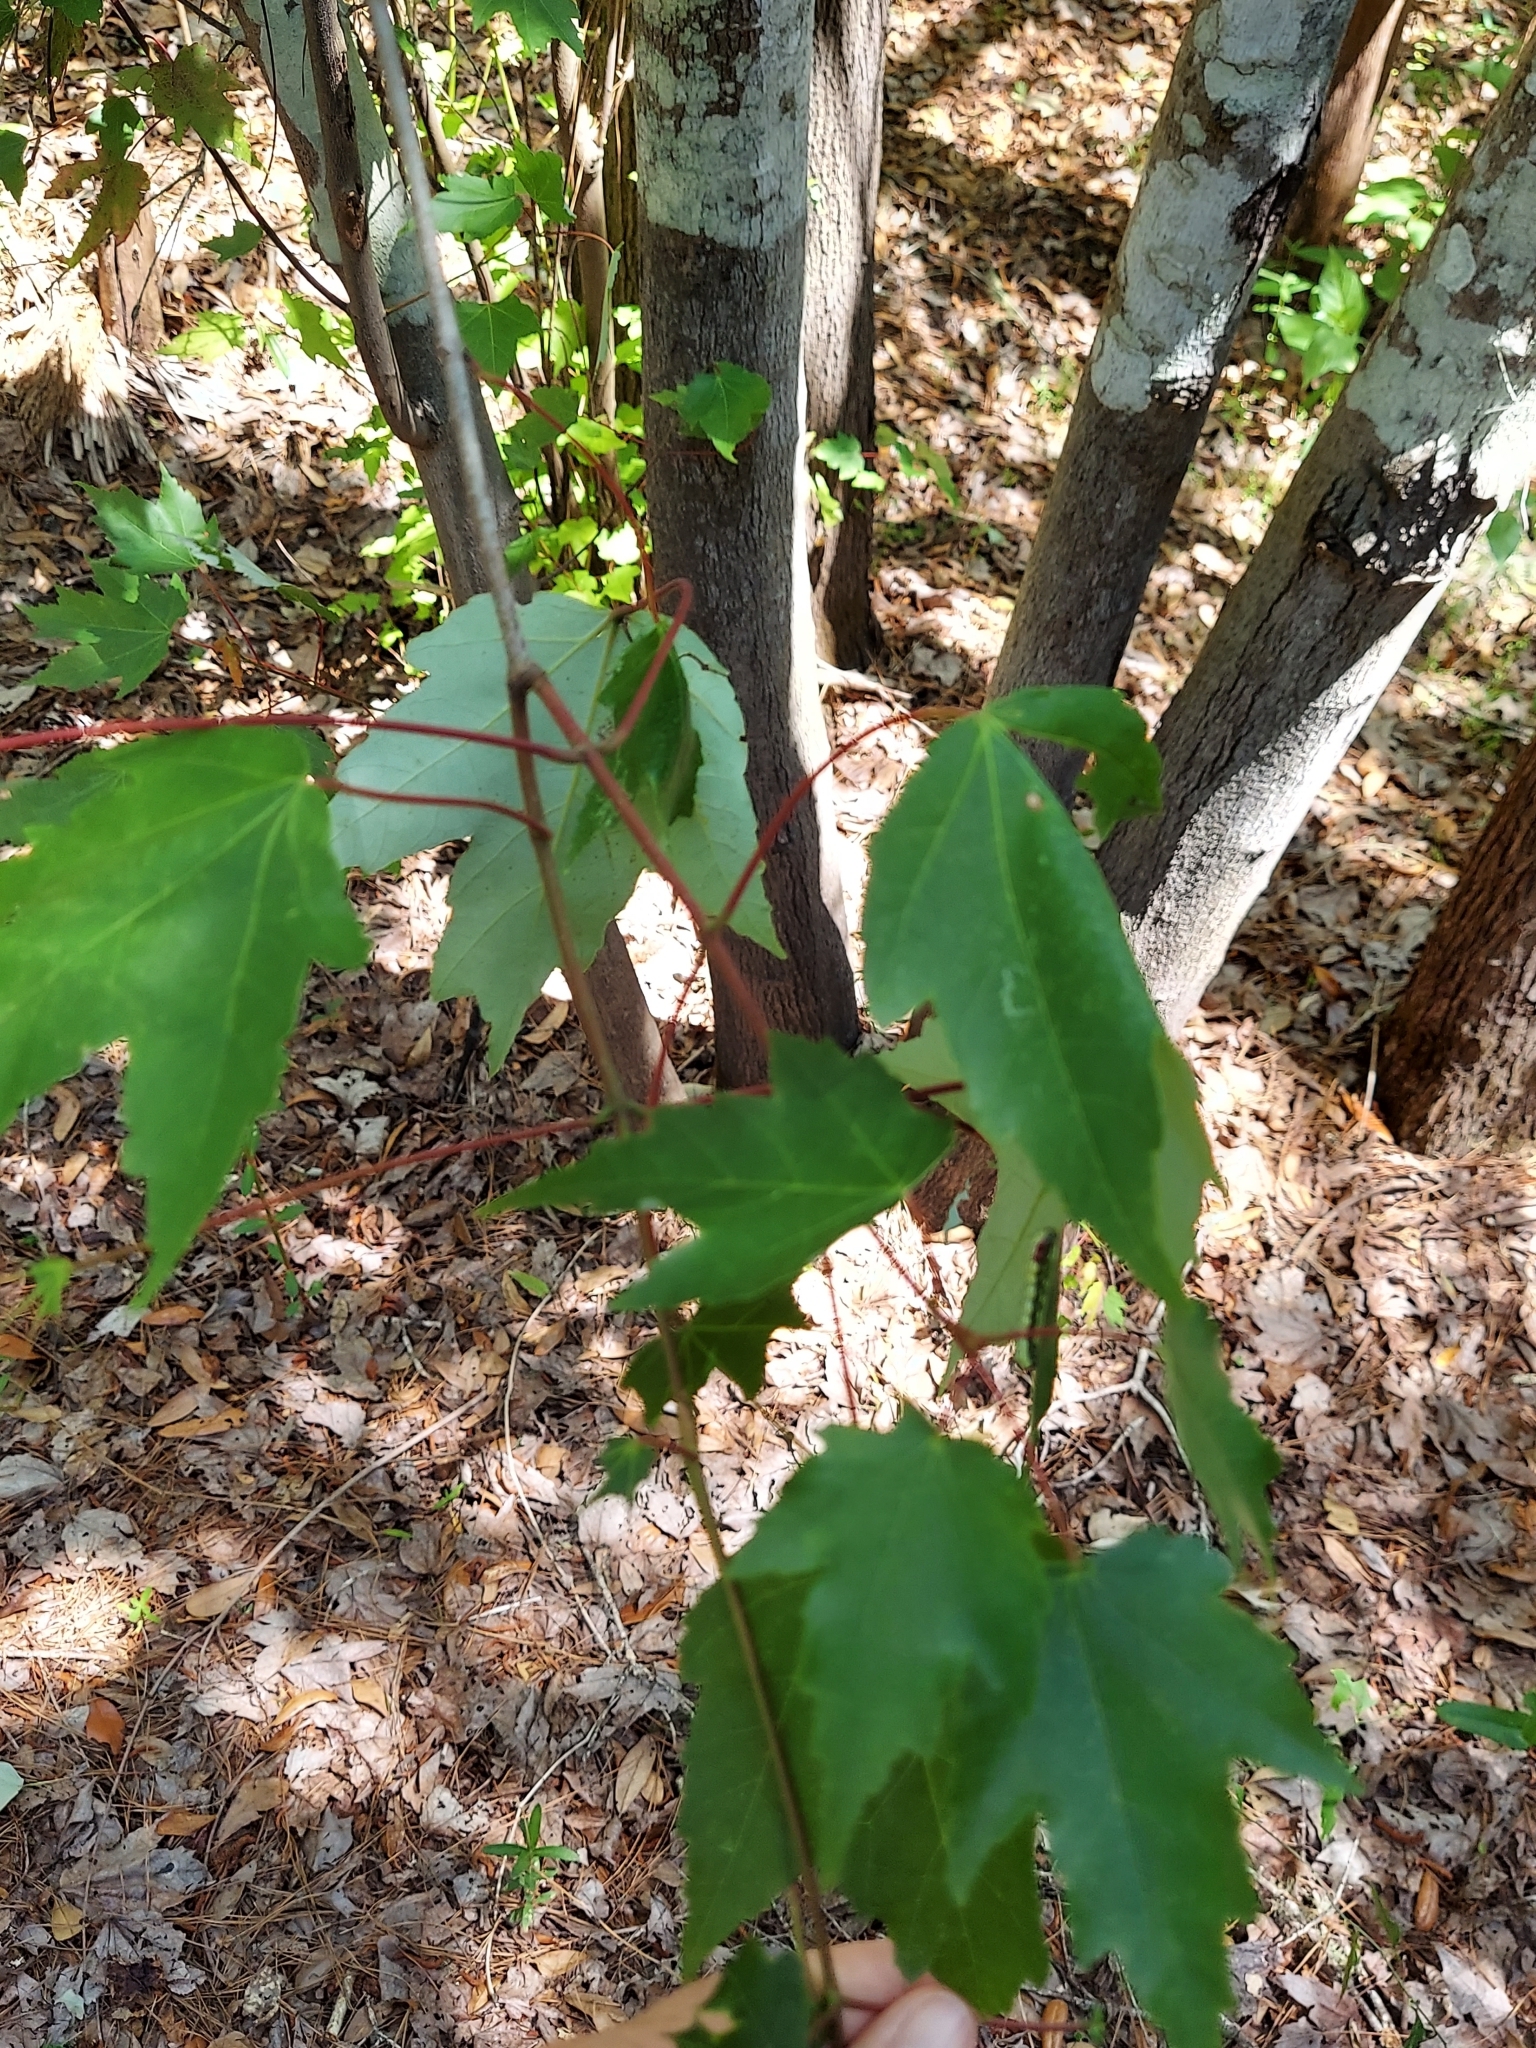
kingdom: Plantae
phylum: Tracheophyta
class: Magnoliopsida
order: Sapindales
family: Sapindaceae
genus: Acer
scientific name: Acer rubrum
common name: Red maple
